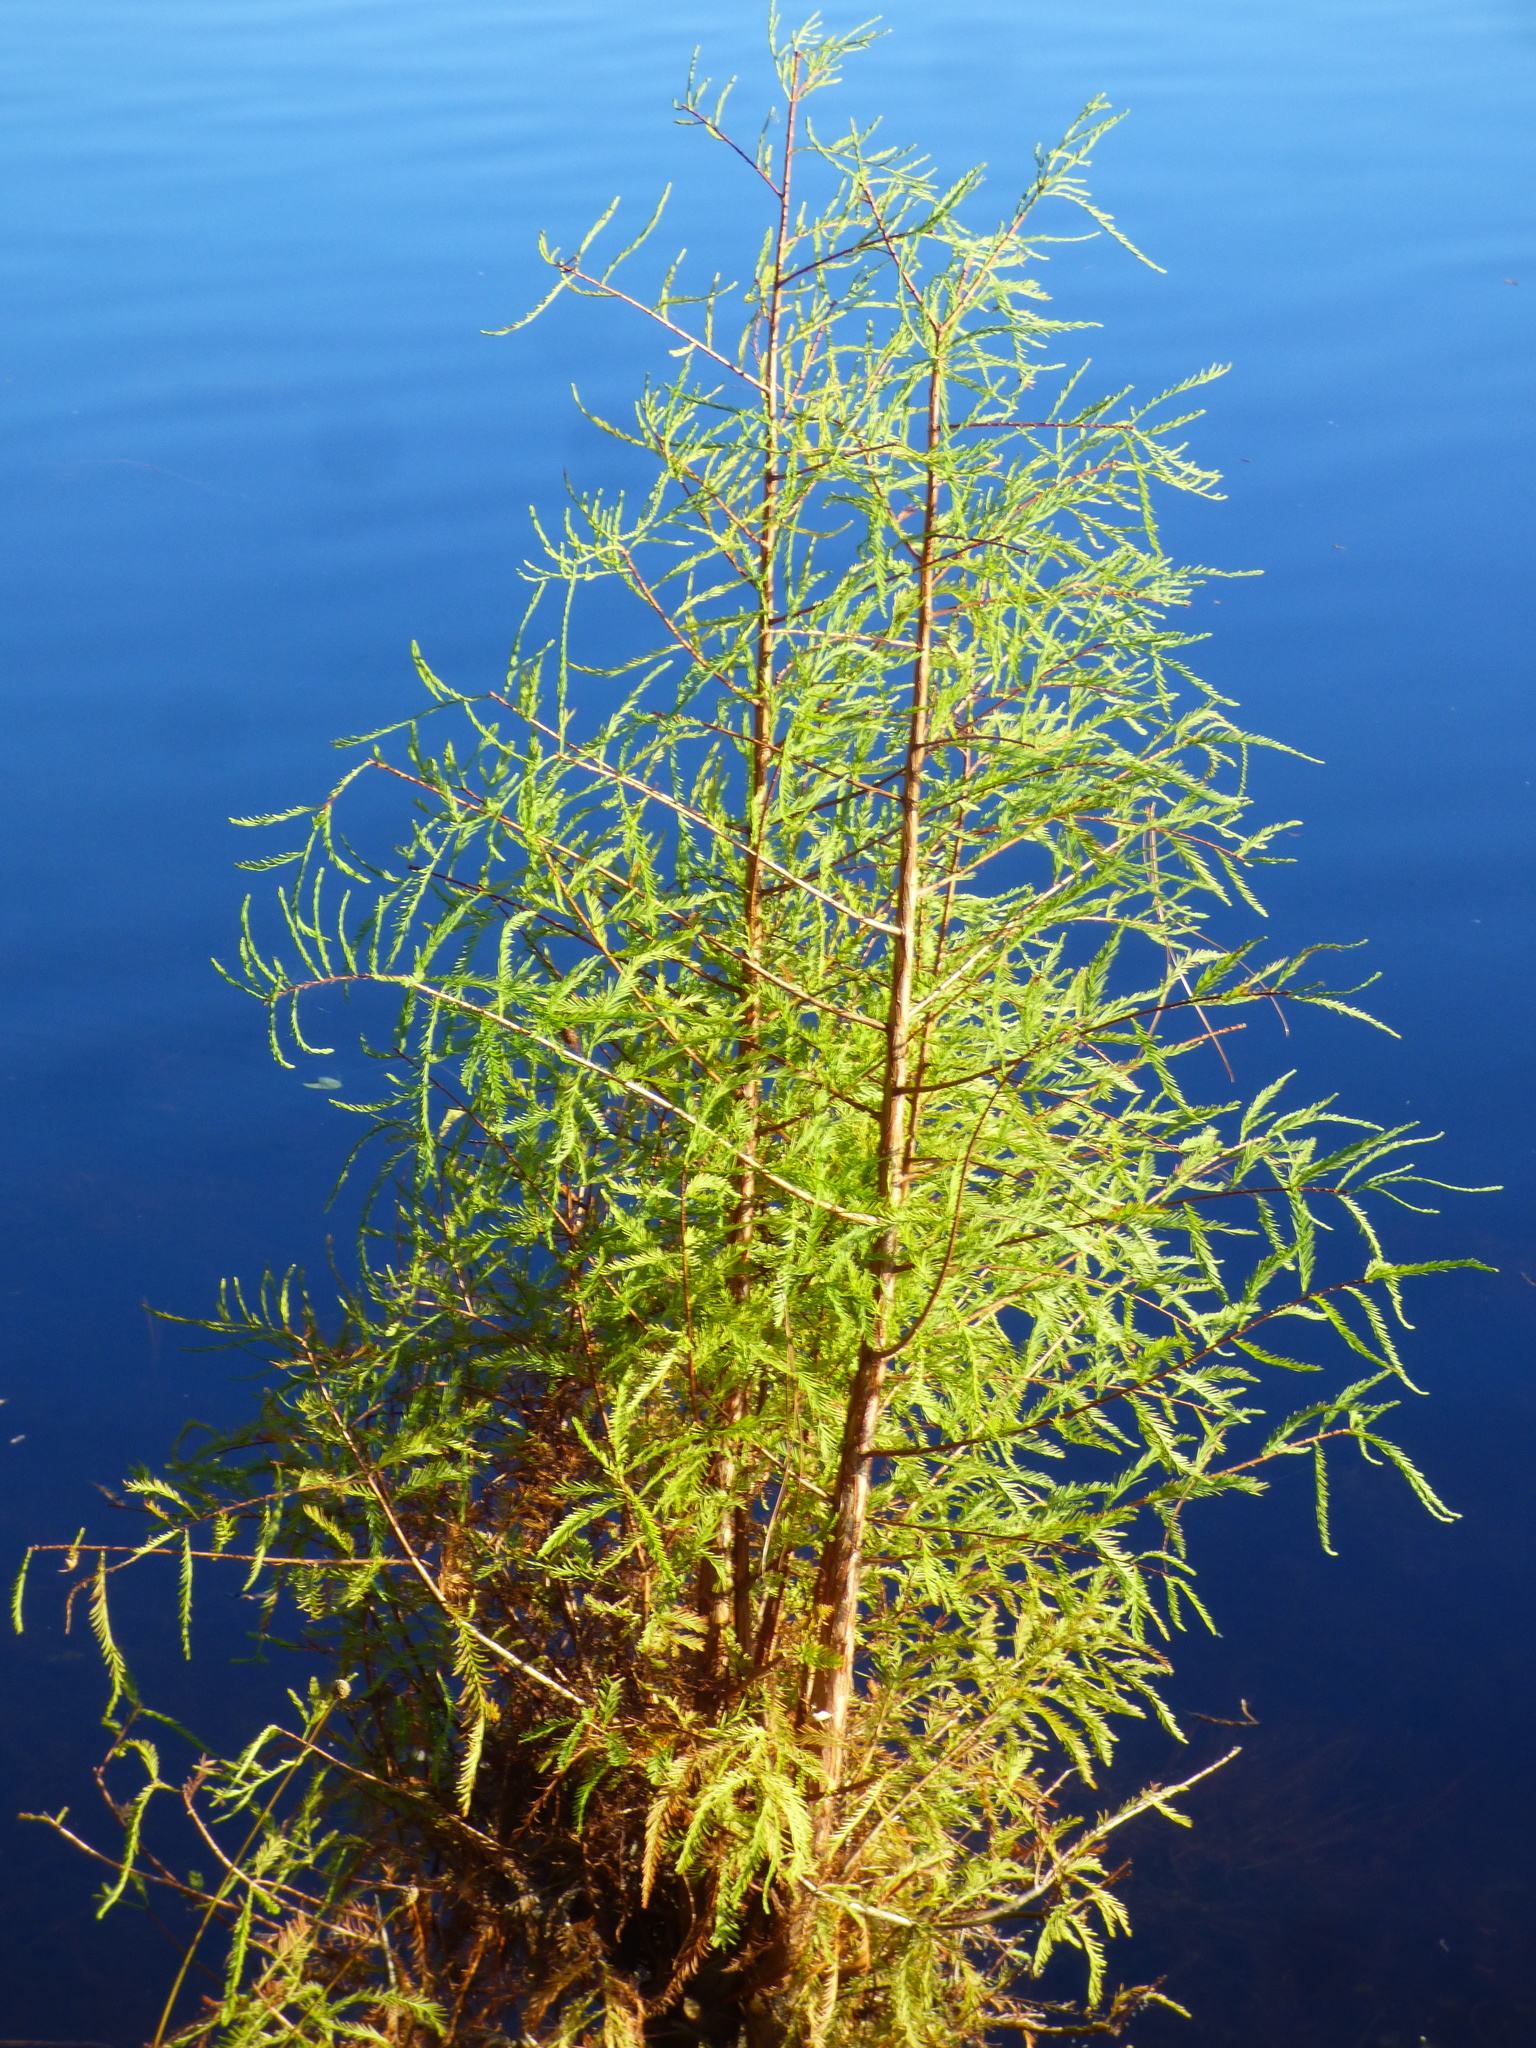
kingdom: Plantae
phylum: Tracheophyta
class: Pinopsida
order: Pinales
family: Cupressaceae
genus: Taxodium
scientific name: Taxodium distichum
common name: Bald cypress
